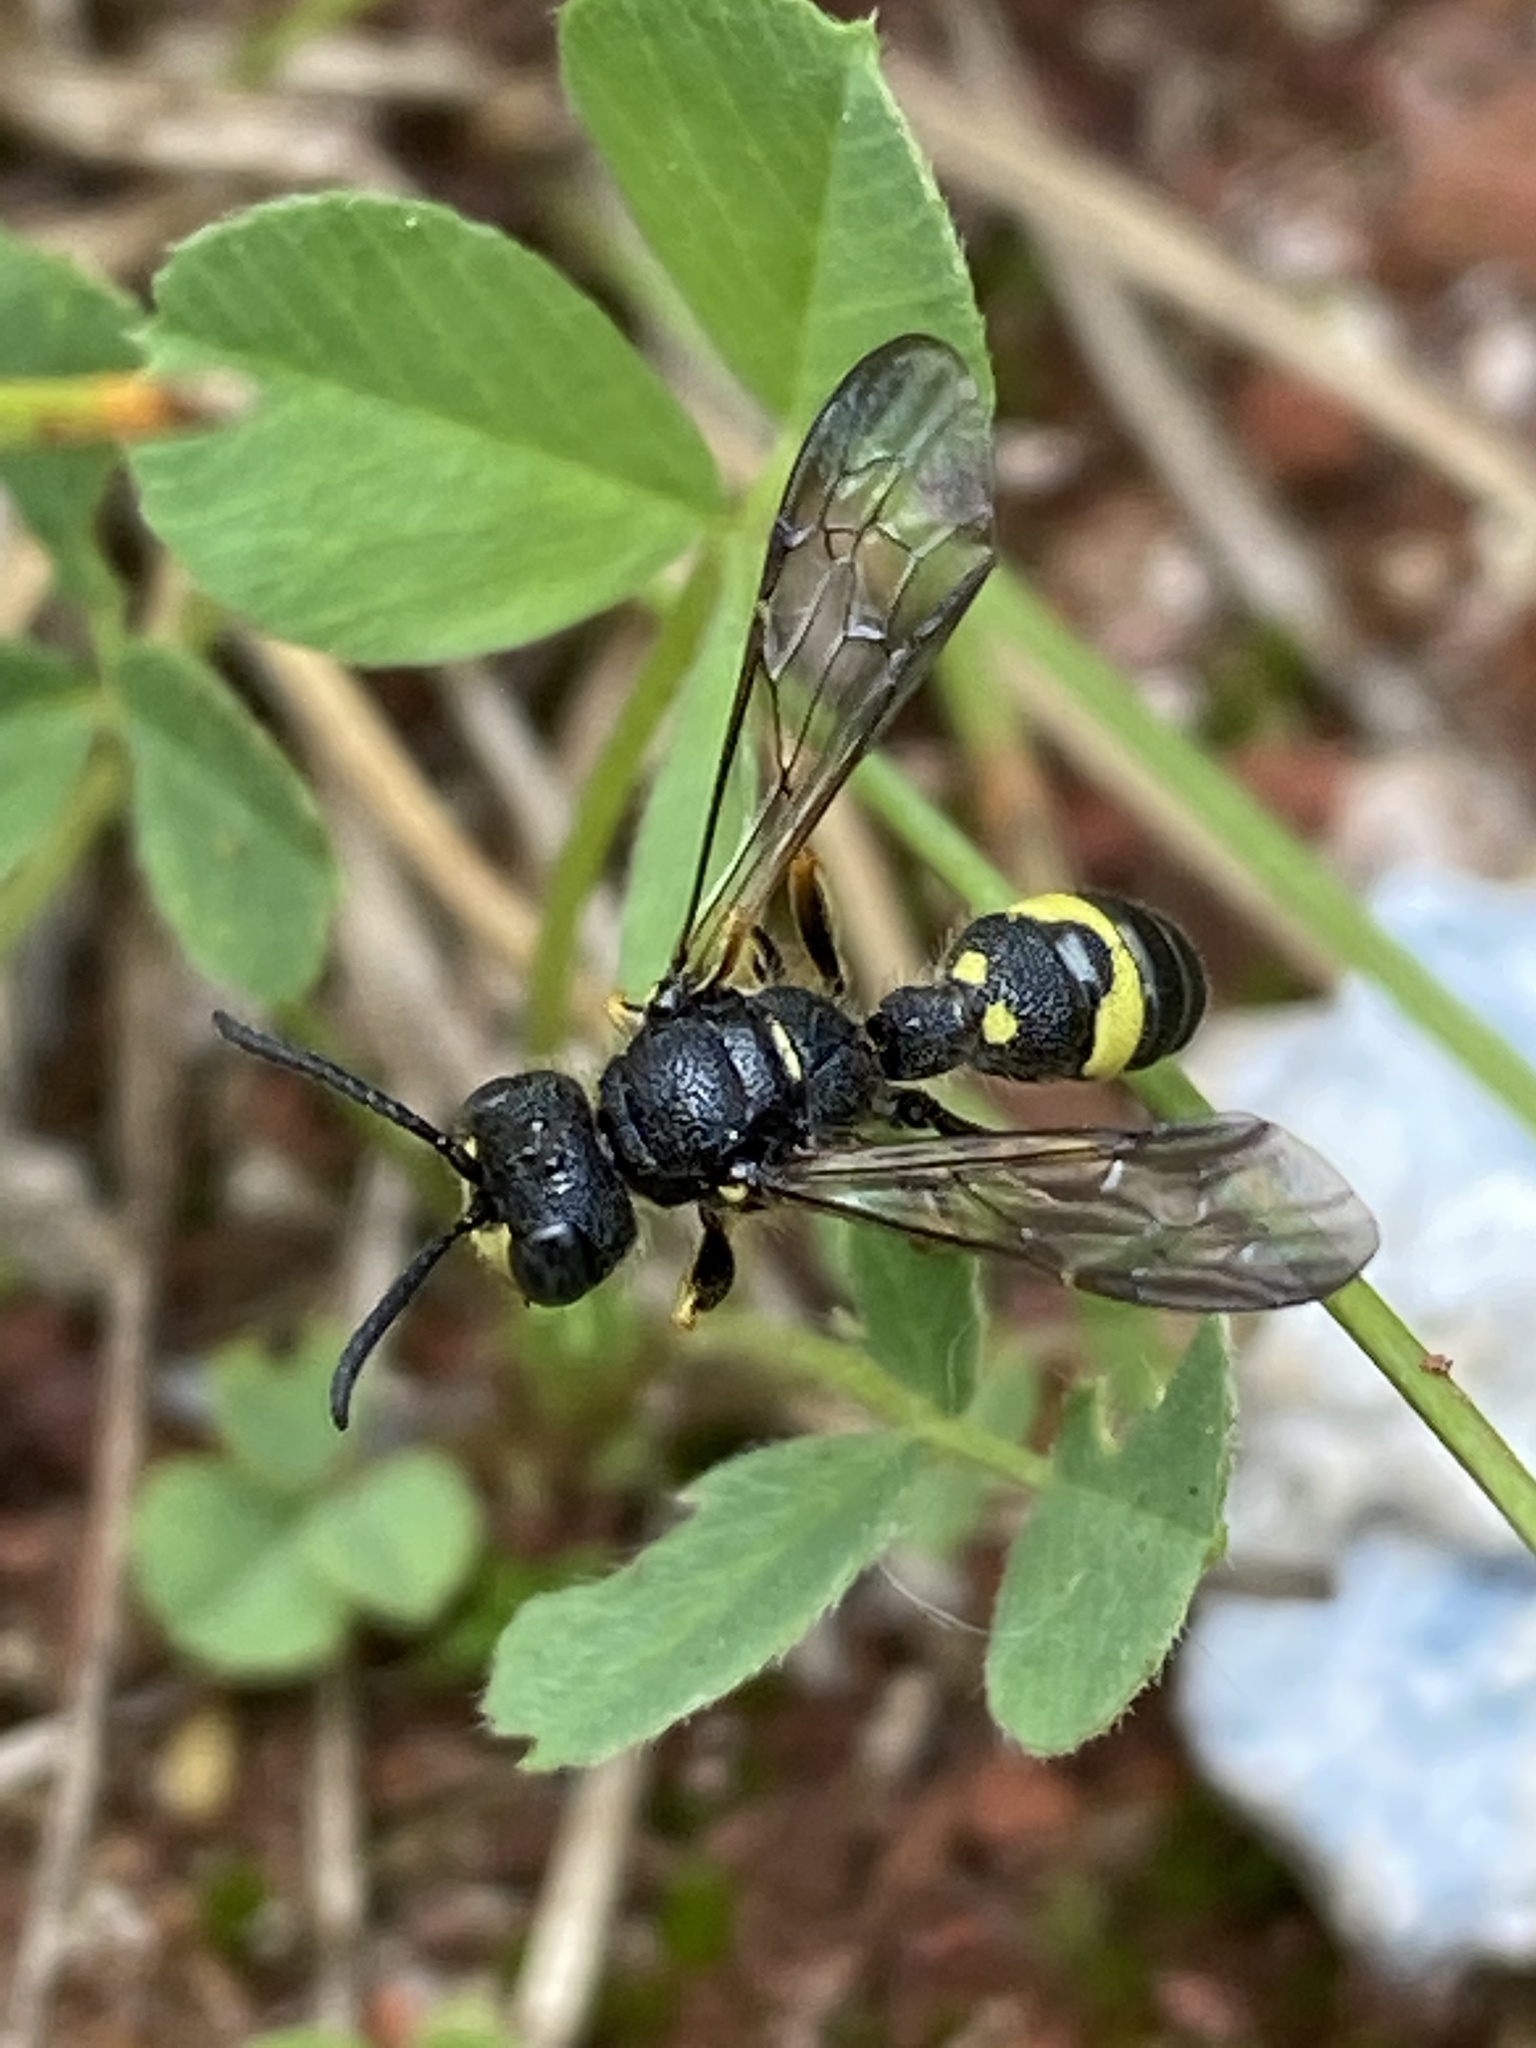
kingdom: Animalia
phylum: Arthropoda
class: Insecta
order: Hymenoptera
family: Crabronidae
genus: Cerceris
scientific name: Cerceris rybyensis
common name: Ornate tailed digger wasp
